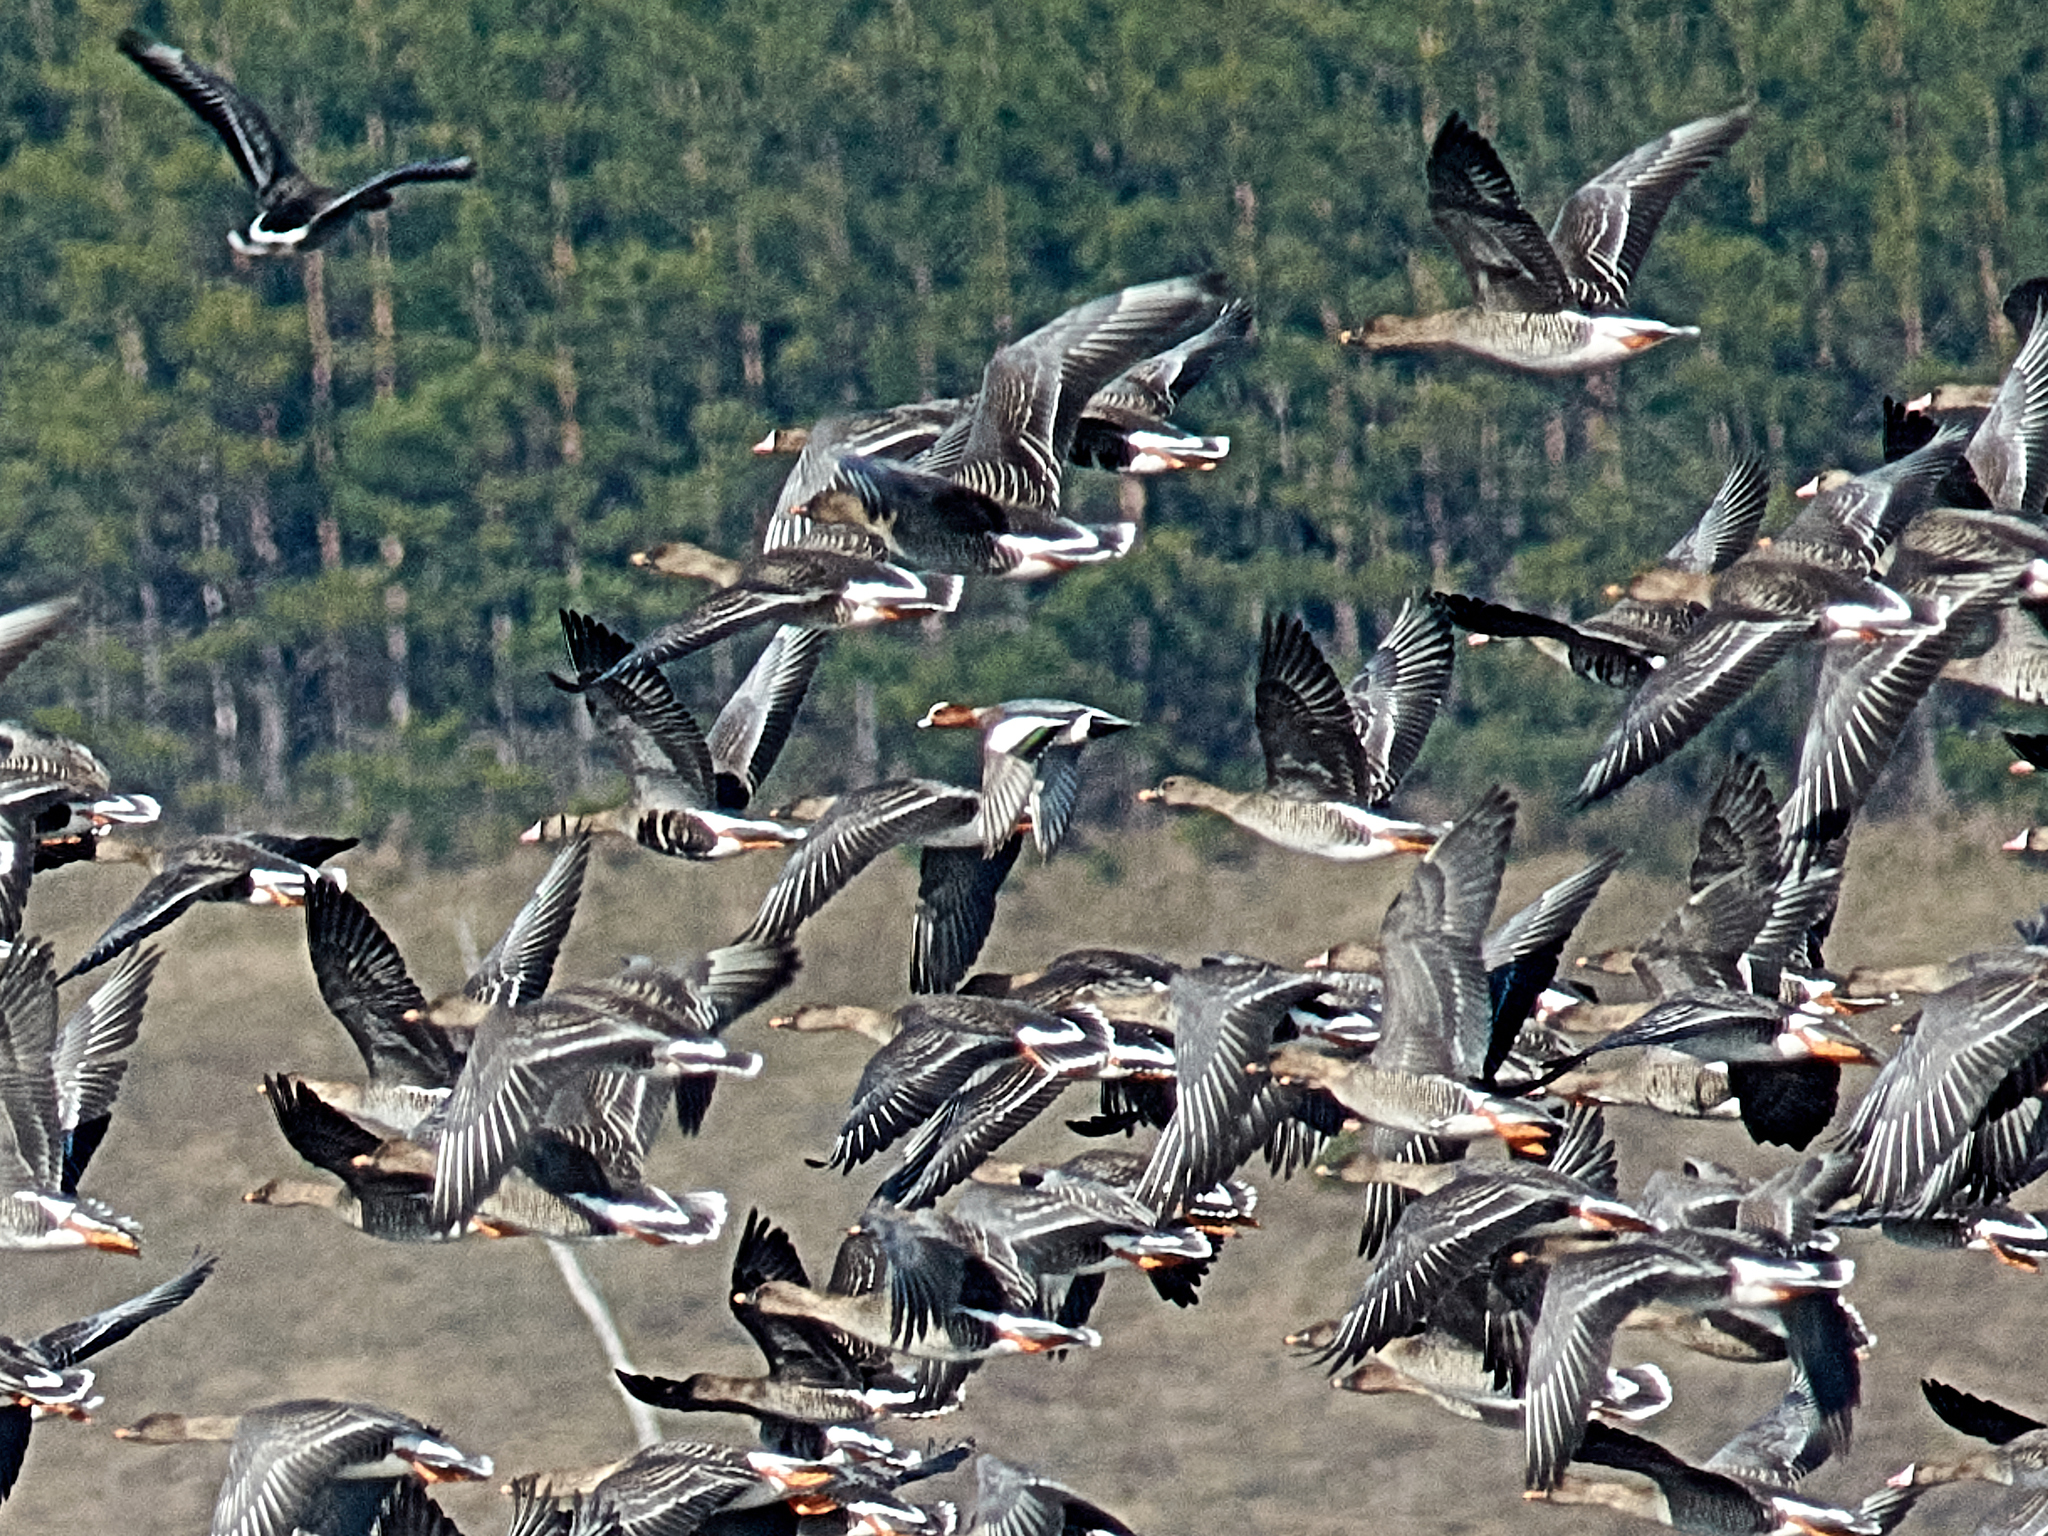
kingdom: Animalia
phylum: Chordata
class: Aves
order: Anseriformes
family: Anatidae
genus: Mareca
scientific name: Mareca penelope
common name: Eurasian wigeon
